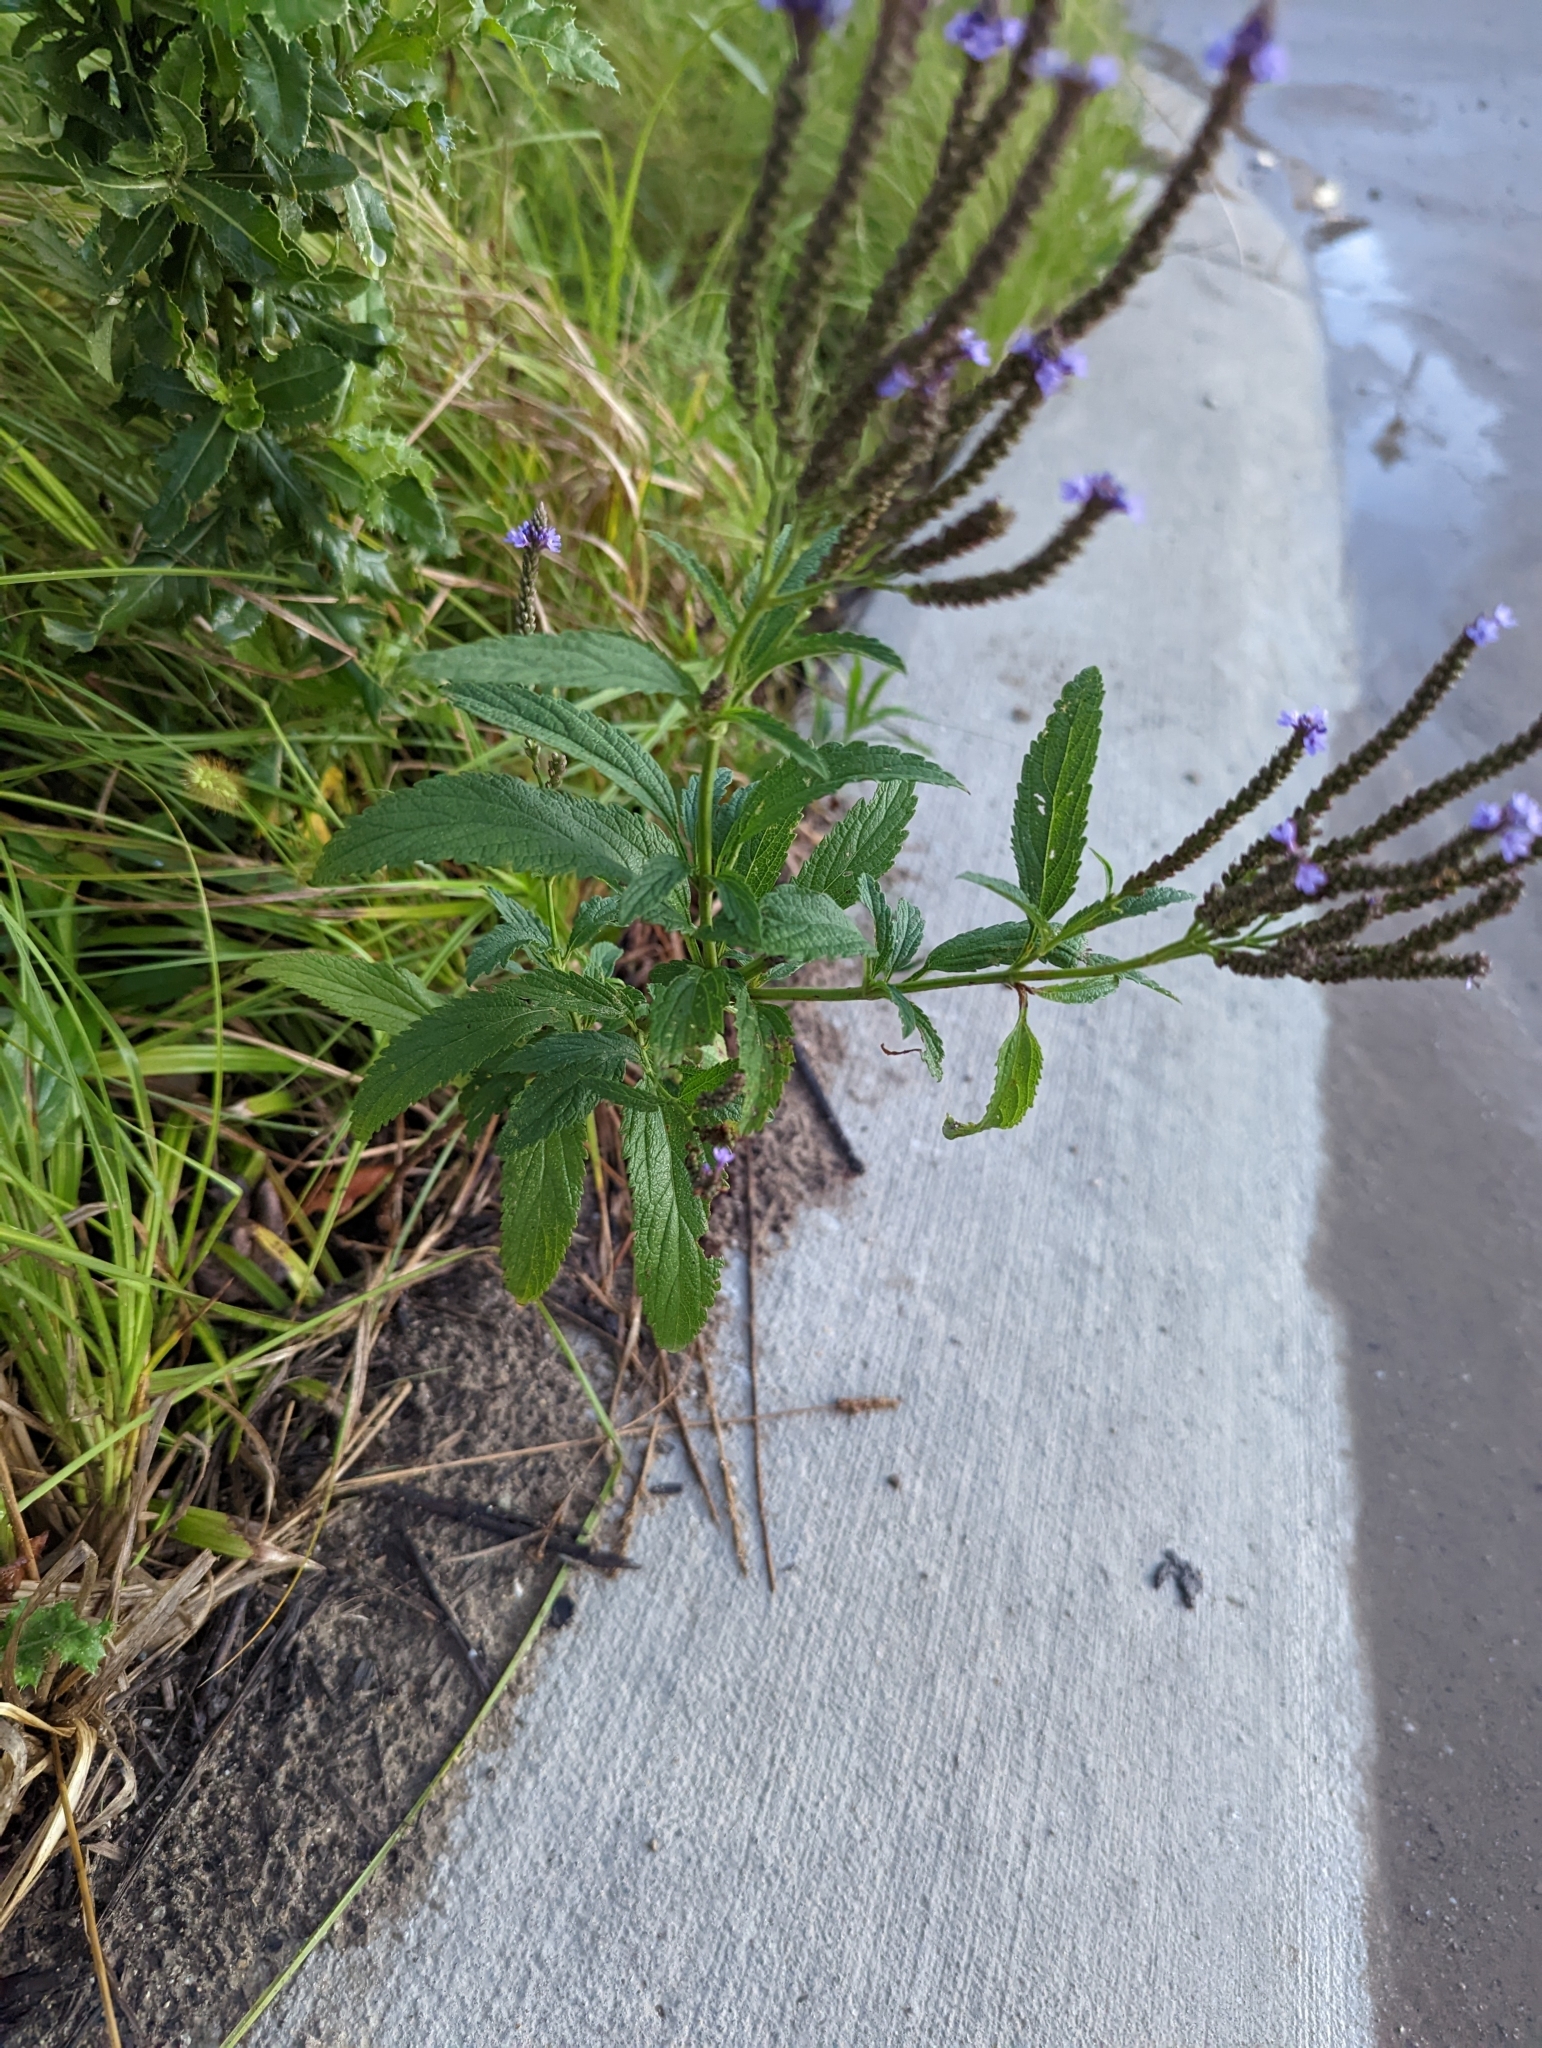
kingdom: Plantae
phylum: Tracheophyta
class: Magnoliopsida
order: Lamiales
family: Verbenaceae
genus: Verbena
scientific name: Verbena hastata
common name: American blue vervain
